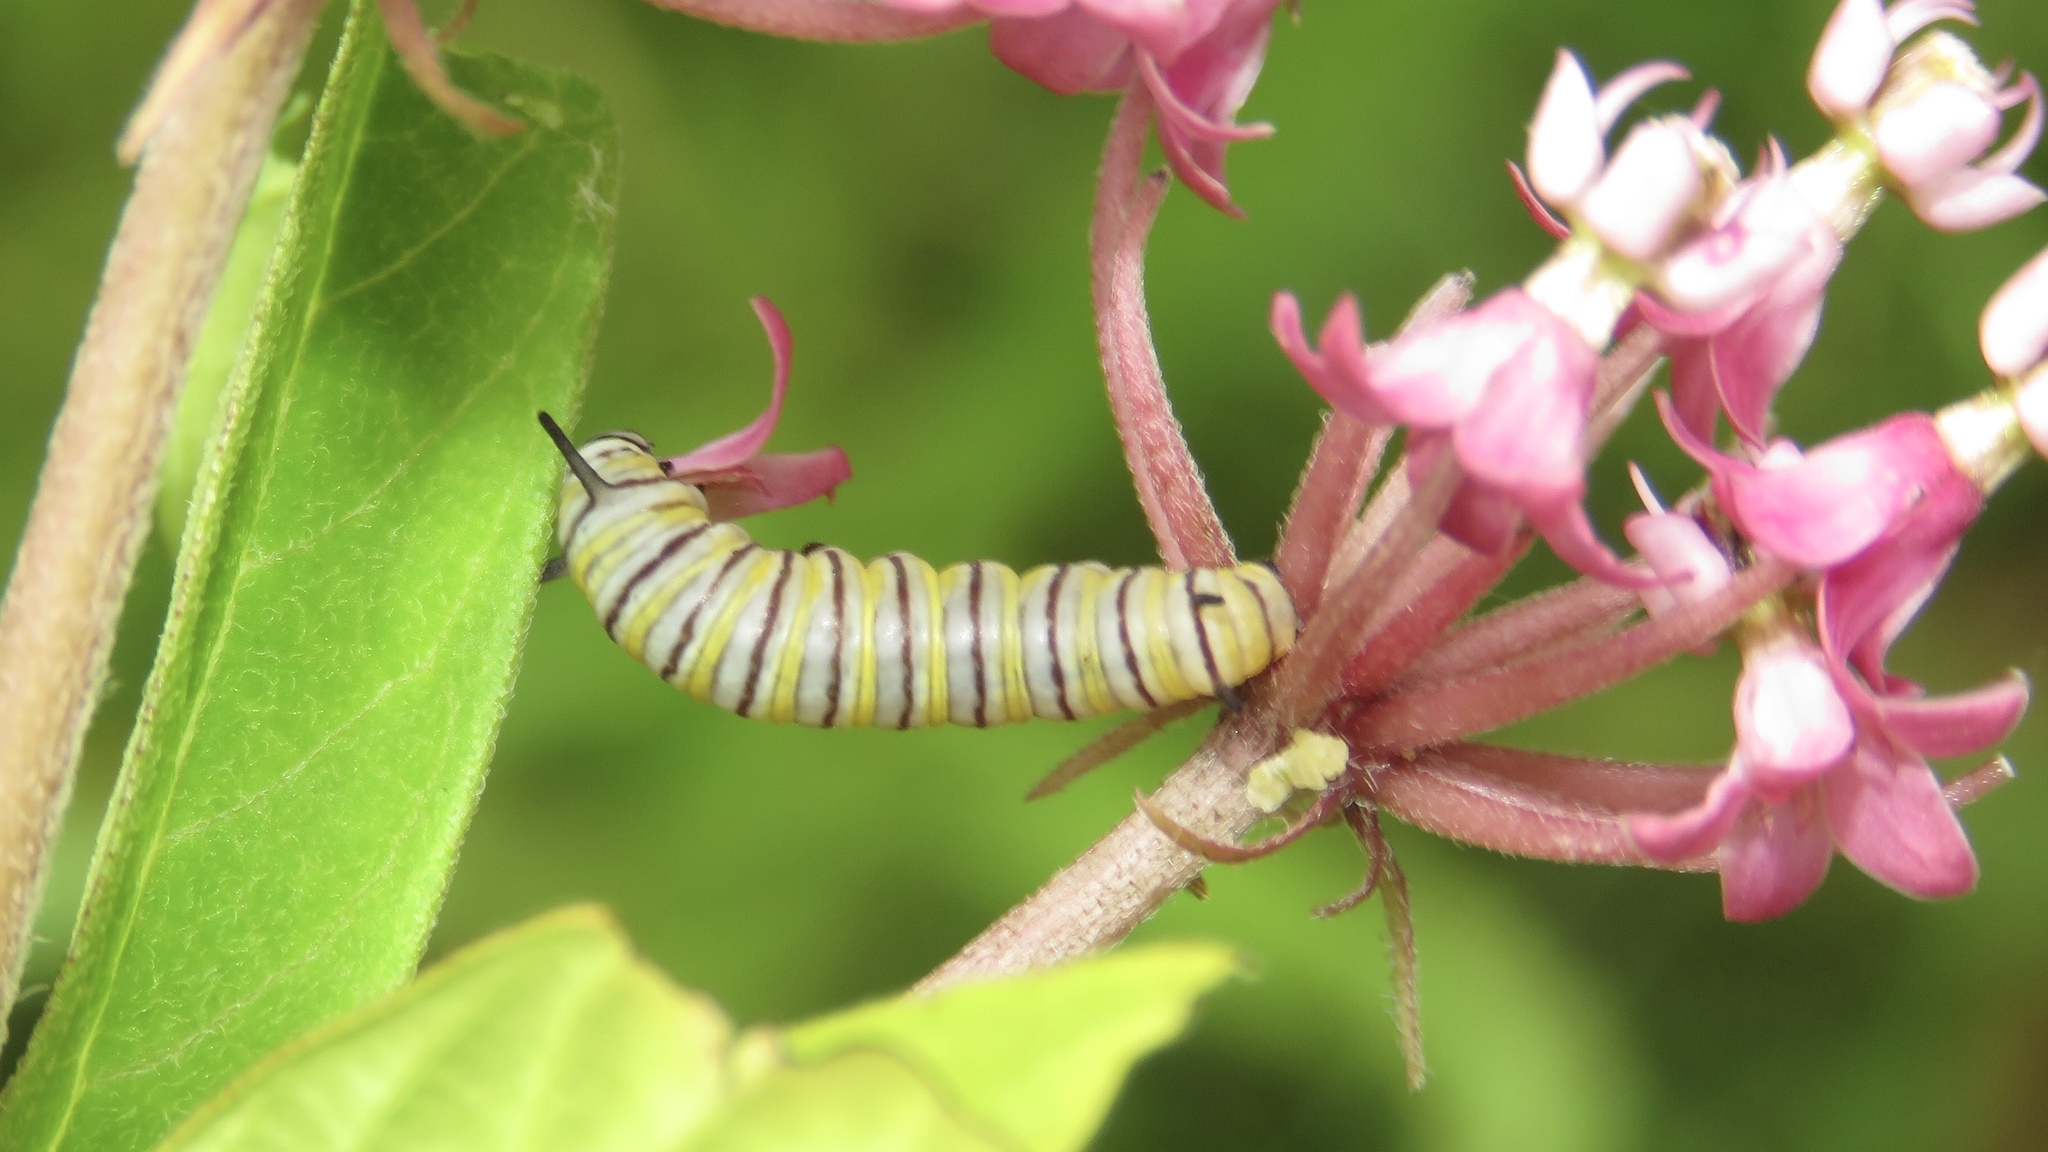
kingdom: Animalia
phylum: Arthropoda
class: Insecta
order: Lepidoptera
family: Nymphalidae
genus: Danaus
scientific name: Danaus plexippus
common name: Monarch
